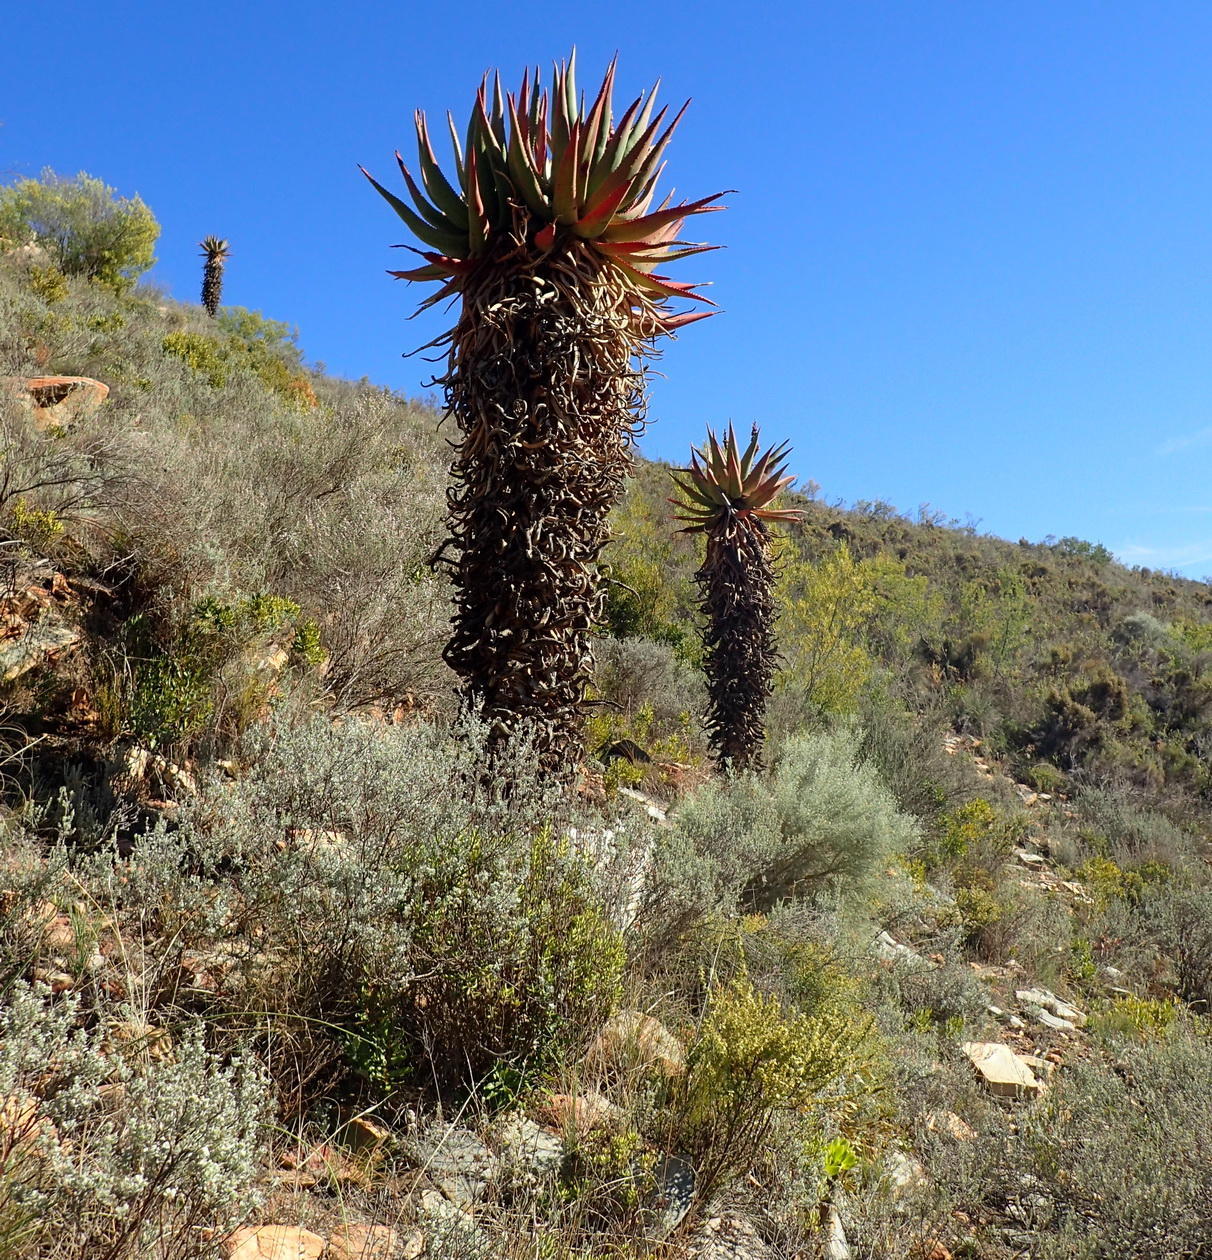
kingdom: Plantae
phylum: Tracheophyta
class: Liliopsida
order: Asparagales
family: Asphodelaceae
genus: Aloe
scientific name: Aloe ferox
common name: Bitter aloe
